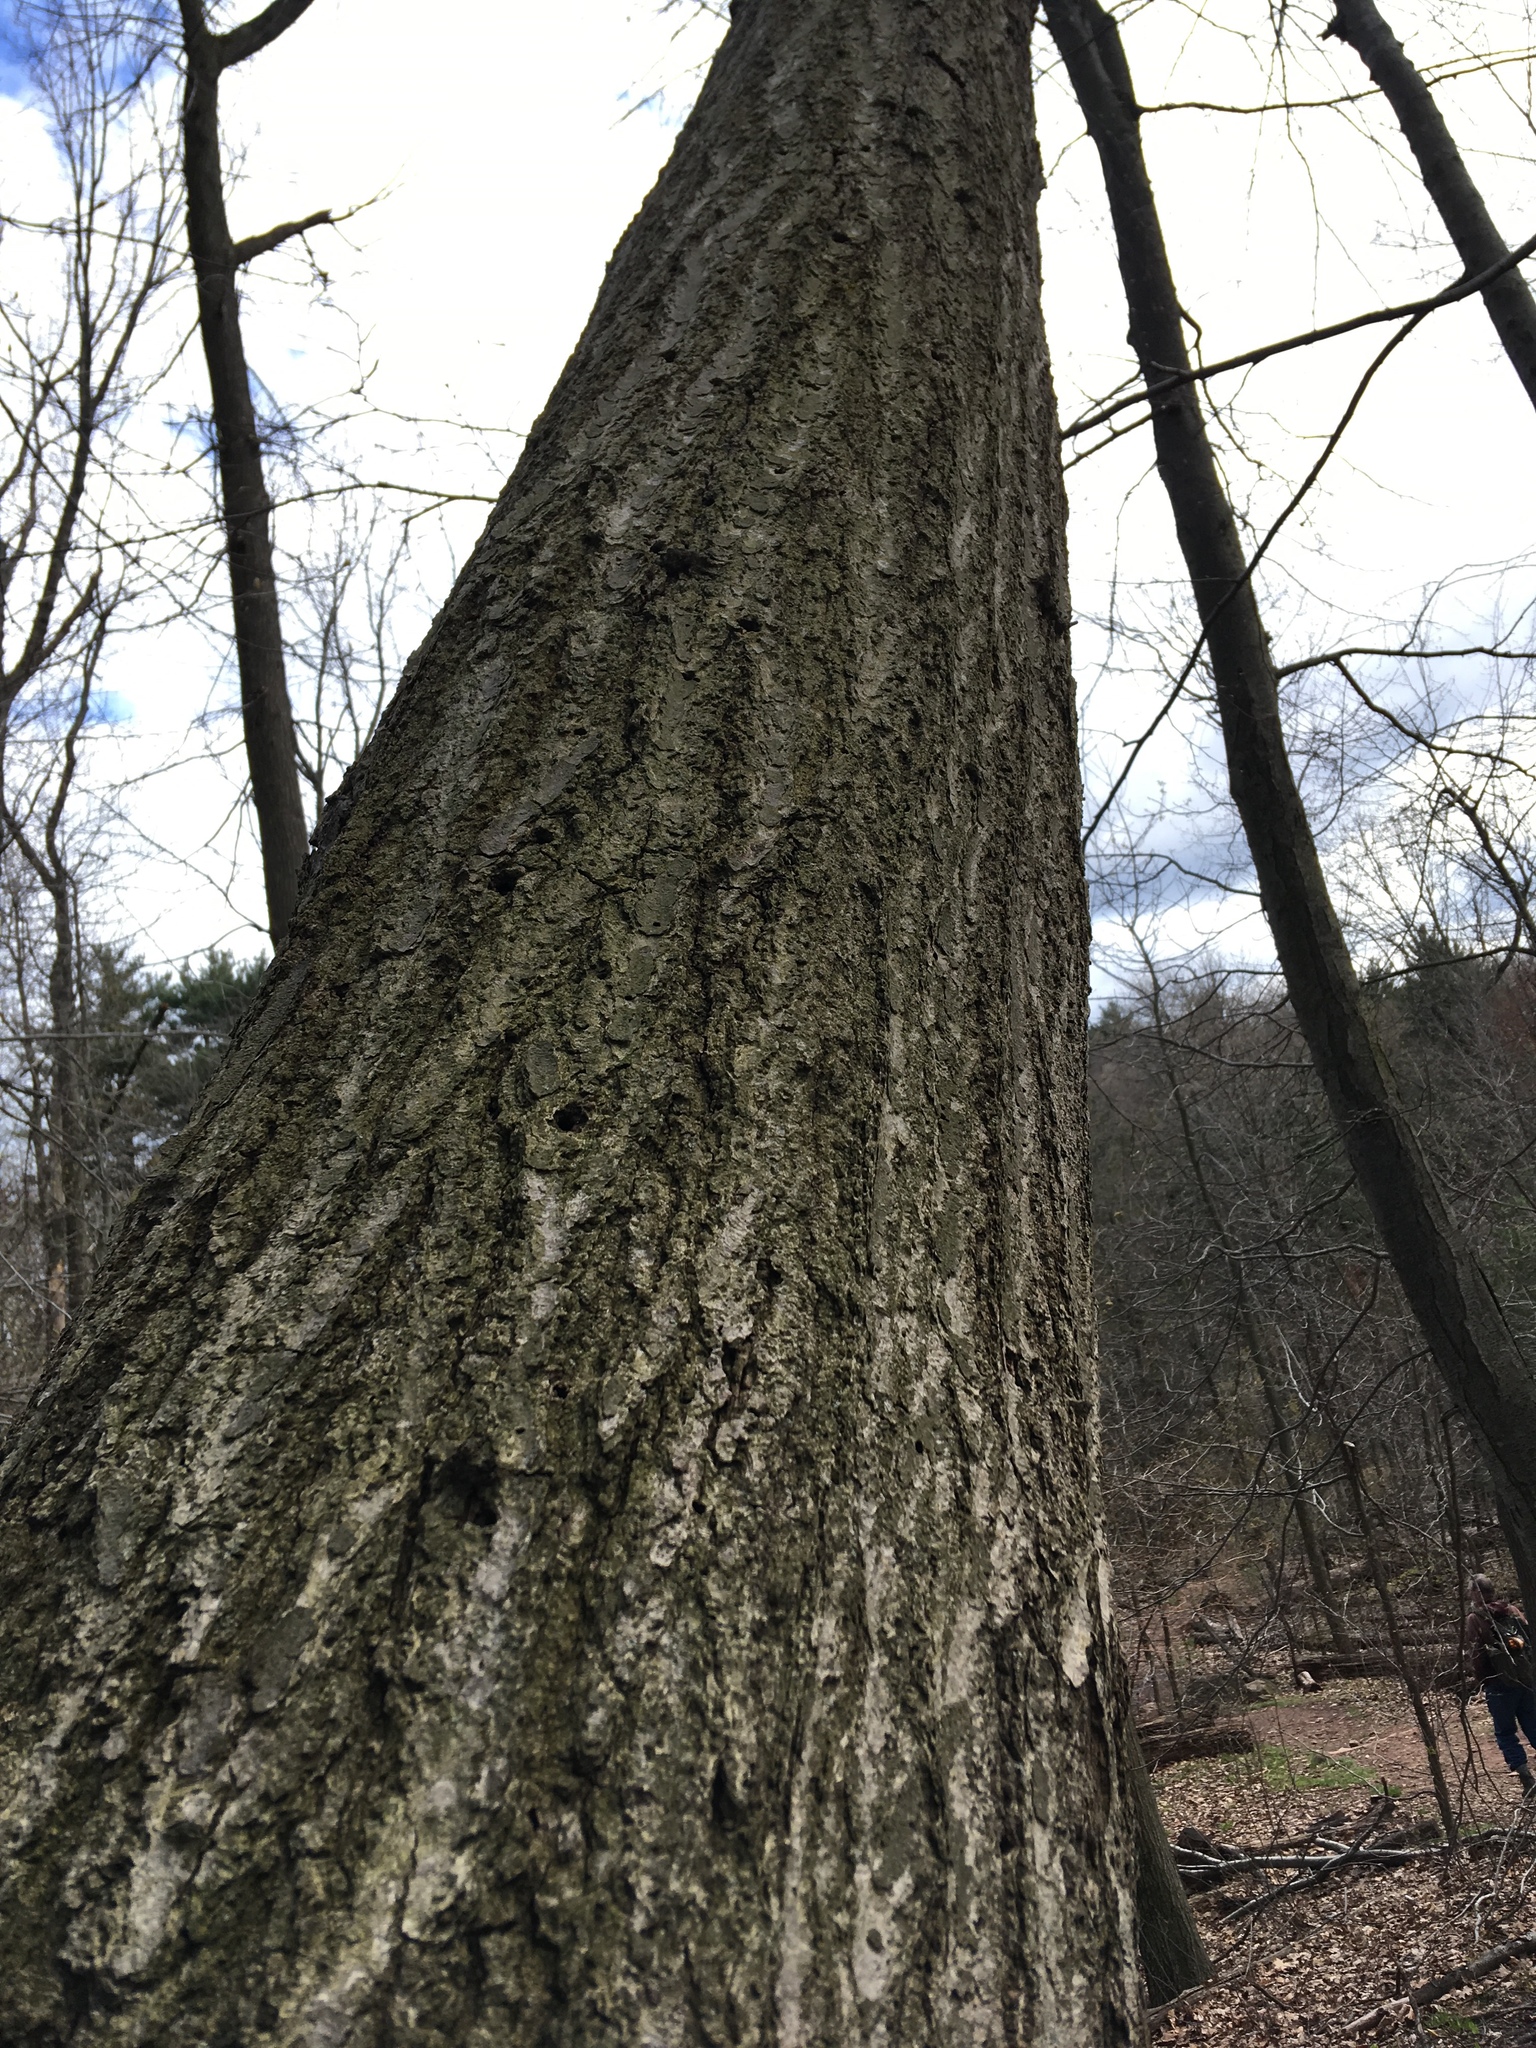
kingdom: Plantae
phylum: Tracheophyta
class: Magnoliopsida
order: Fagales
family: Fagaceae
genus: Quercus
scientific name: Quercus rubra
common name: Red oak
